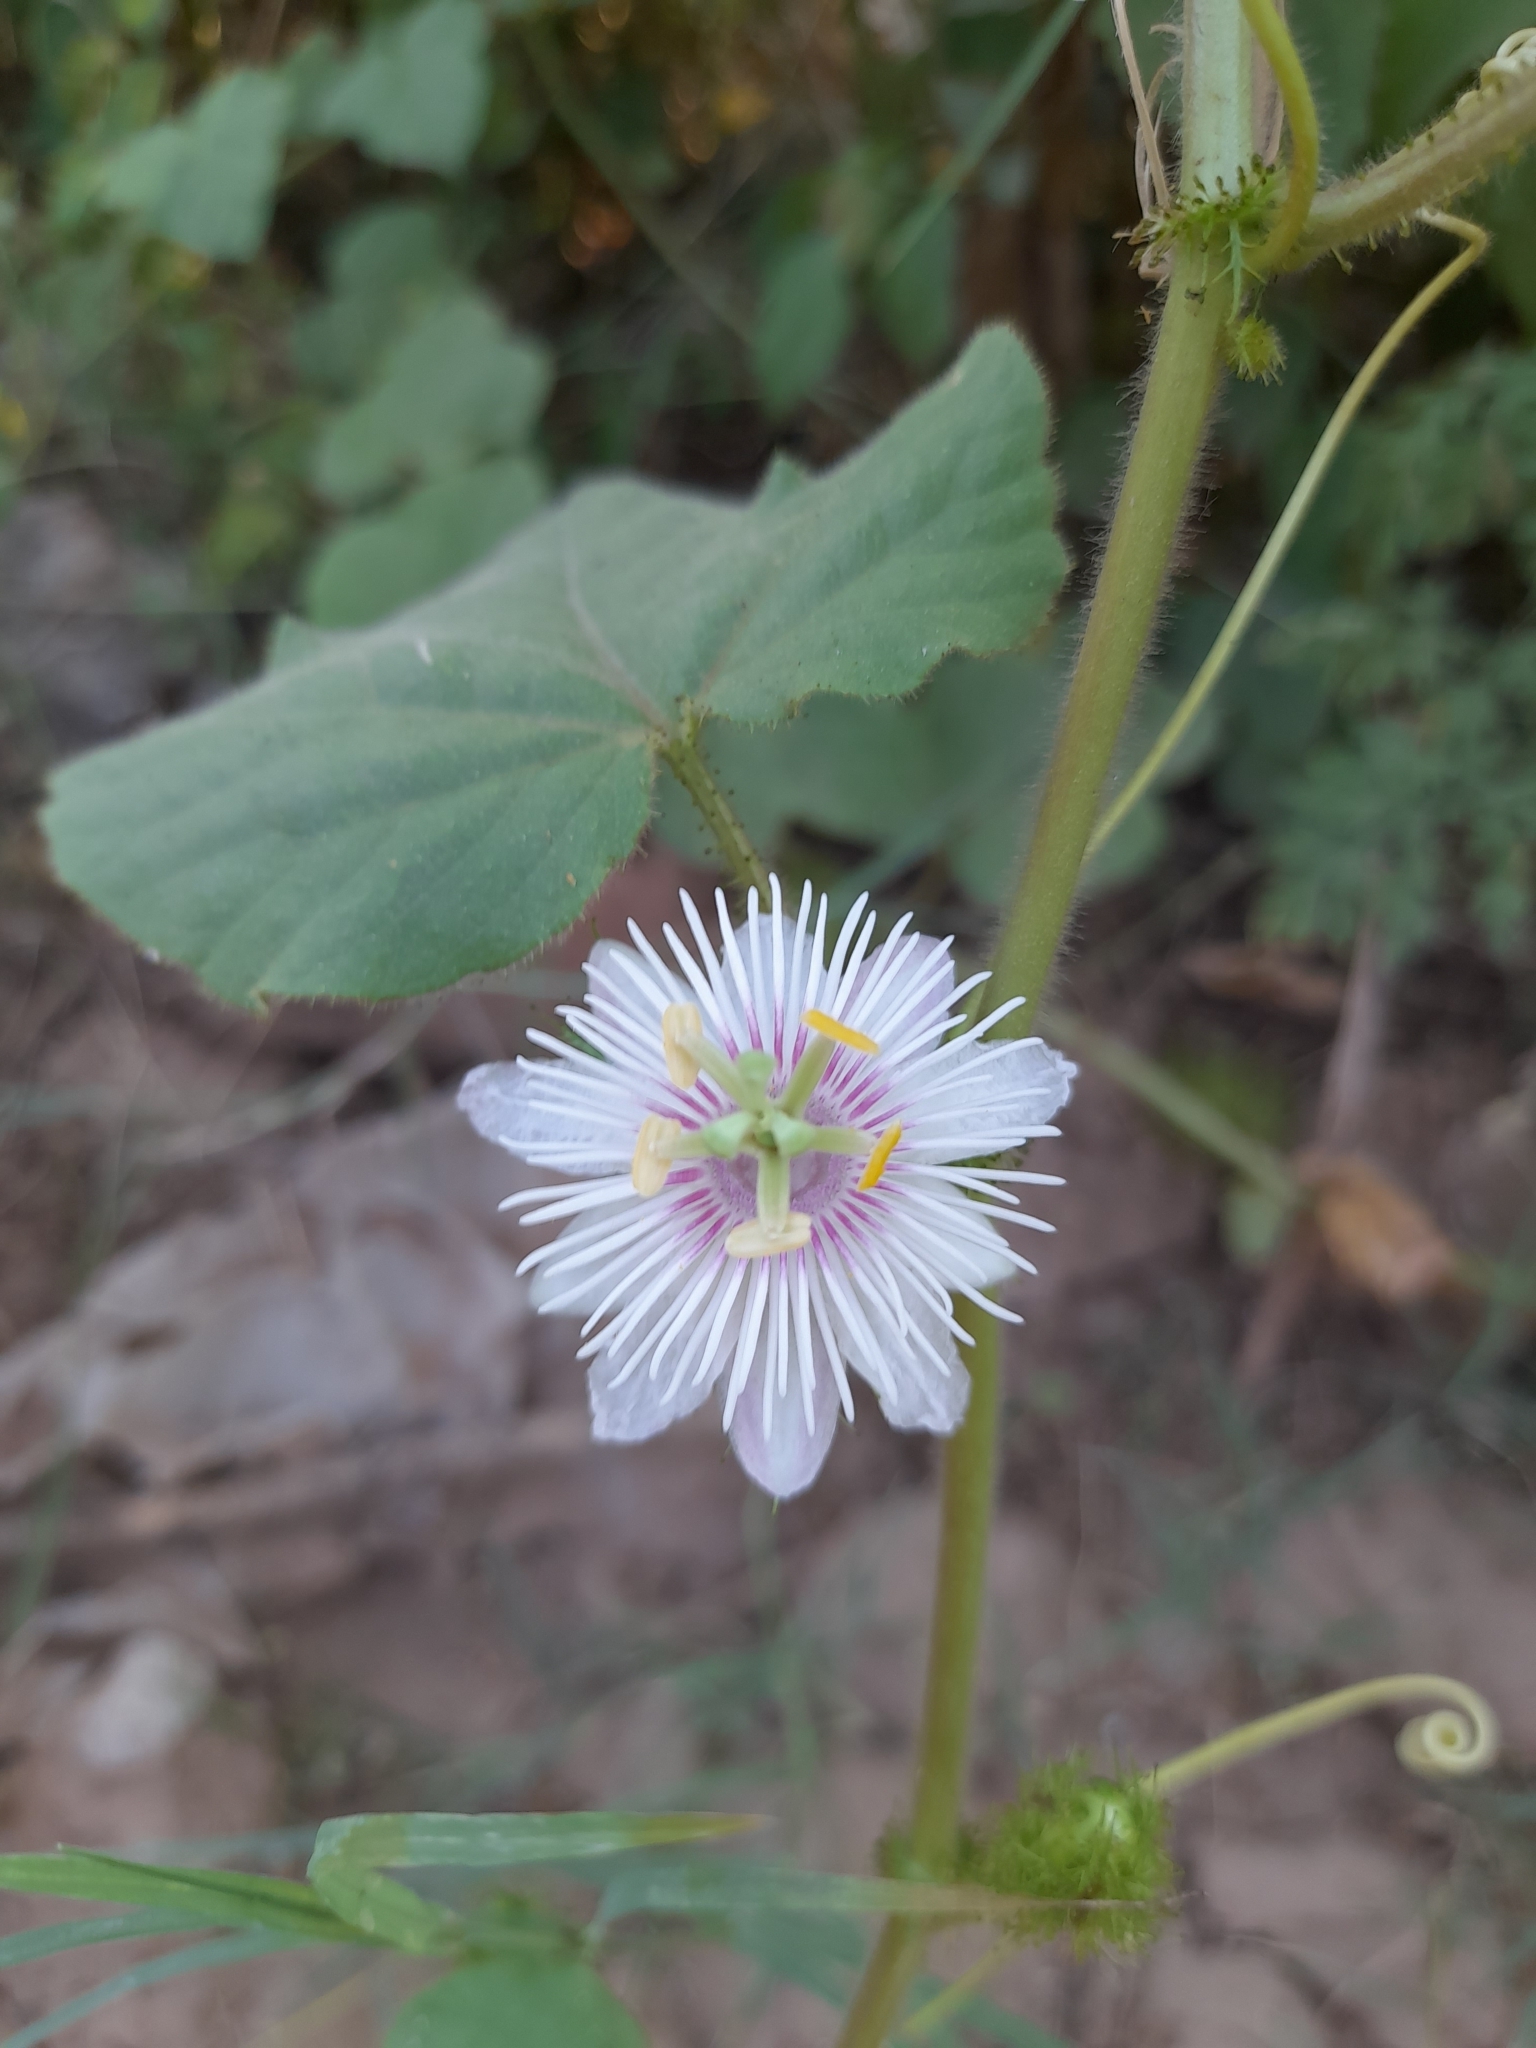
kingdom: Plantae
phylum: Tracheophyta
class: Magnoliopsida
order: Malpighiales
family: Passifloraceae
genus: Passiflora
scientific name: Passiflora vesicaria
